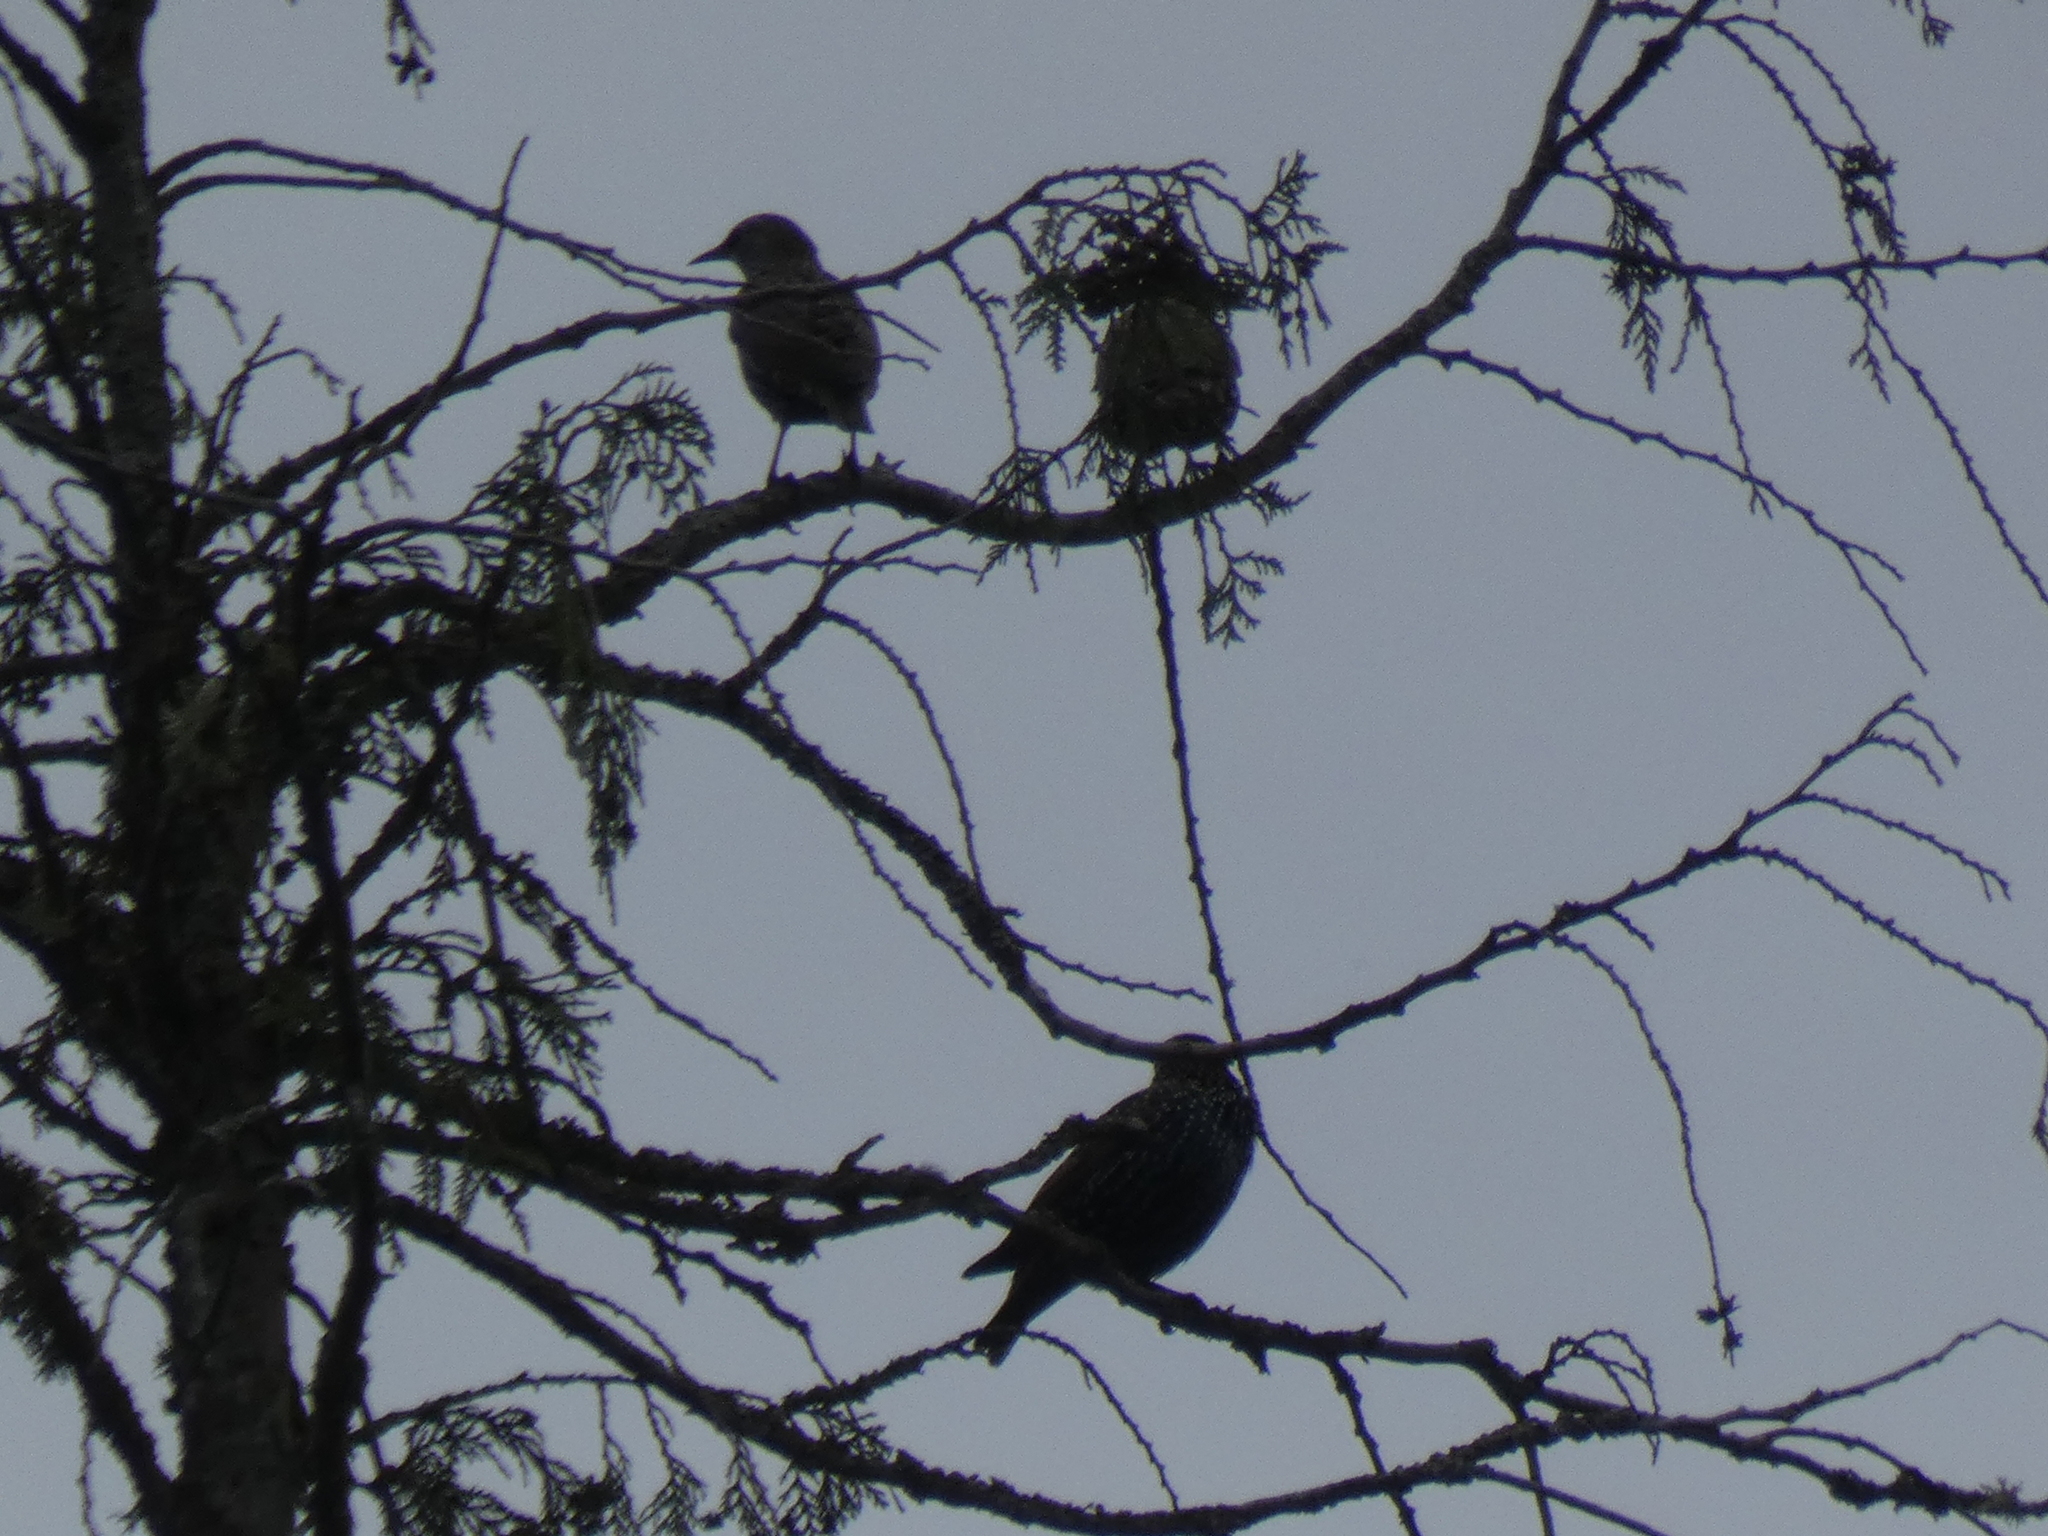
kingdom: Animalia
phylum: Chordata
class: Aves
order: Passeriformes
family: Sturnidae
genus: Sturnus
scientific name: Sturnus vulgaris
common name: Common starling
